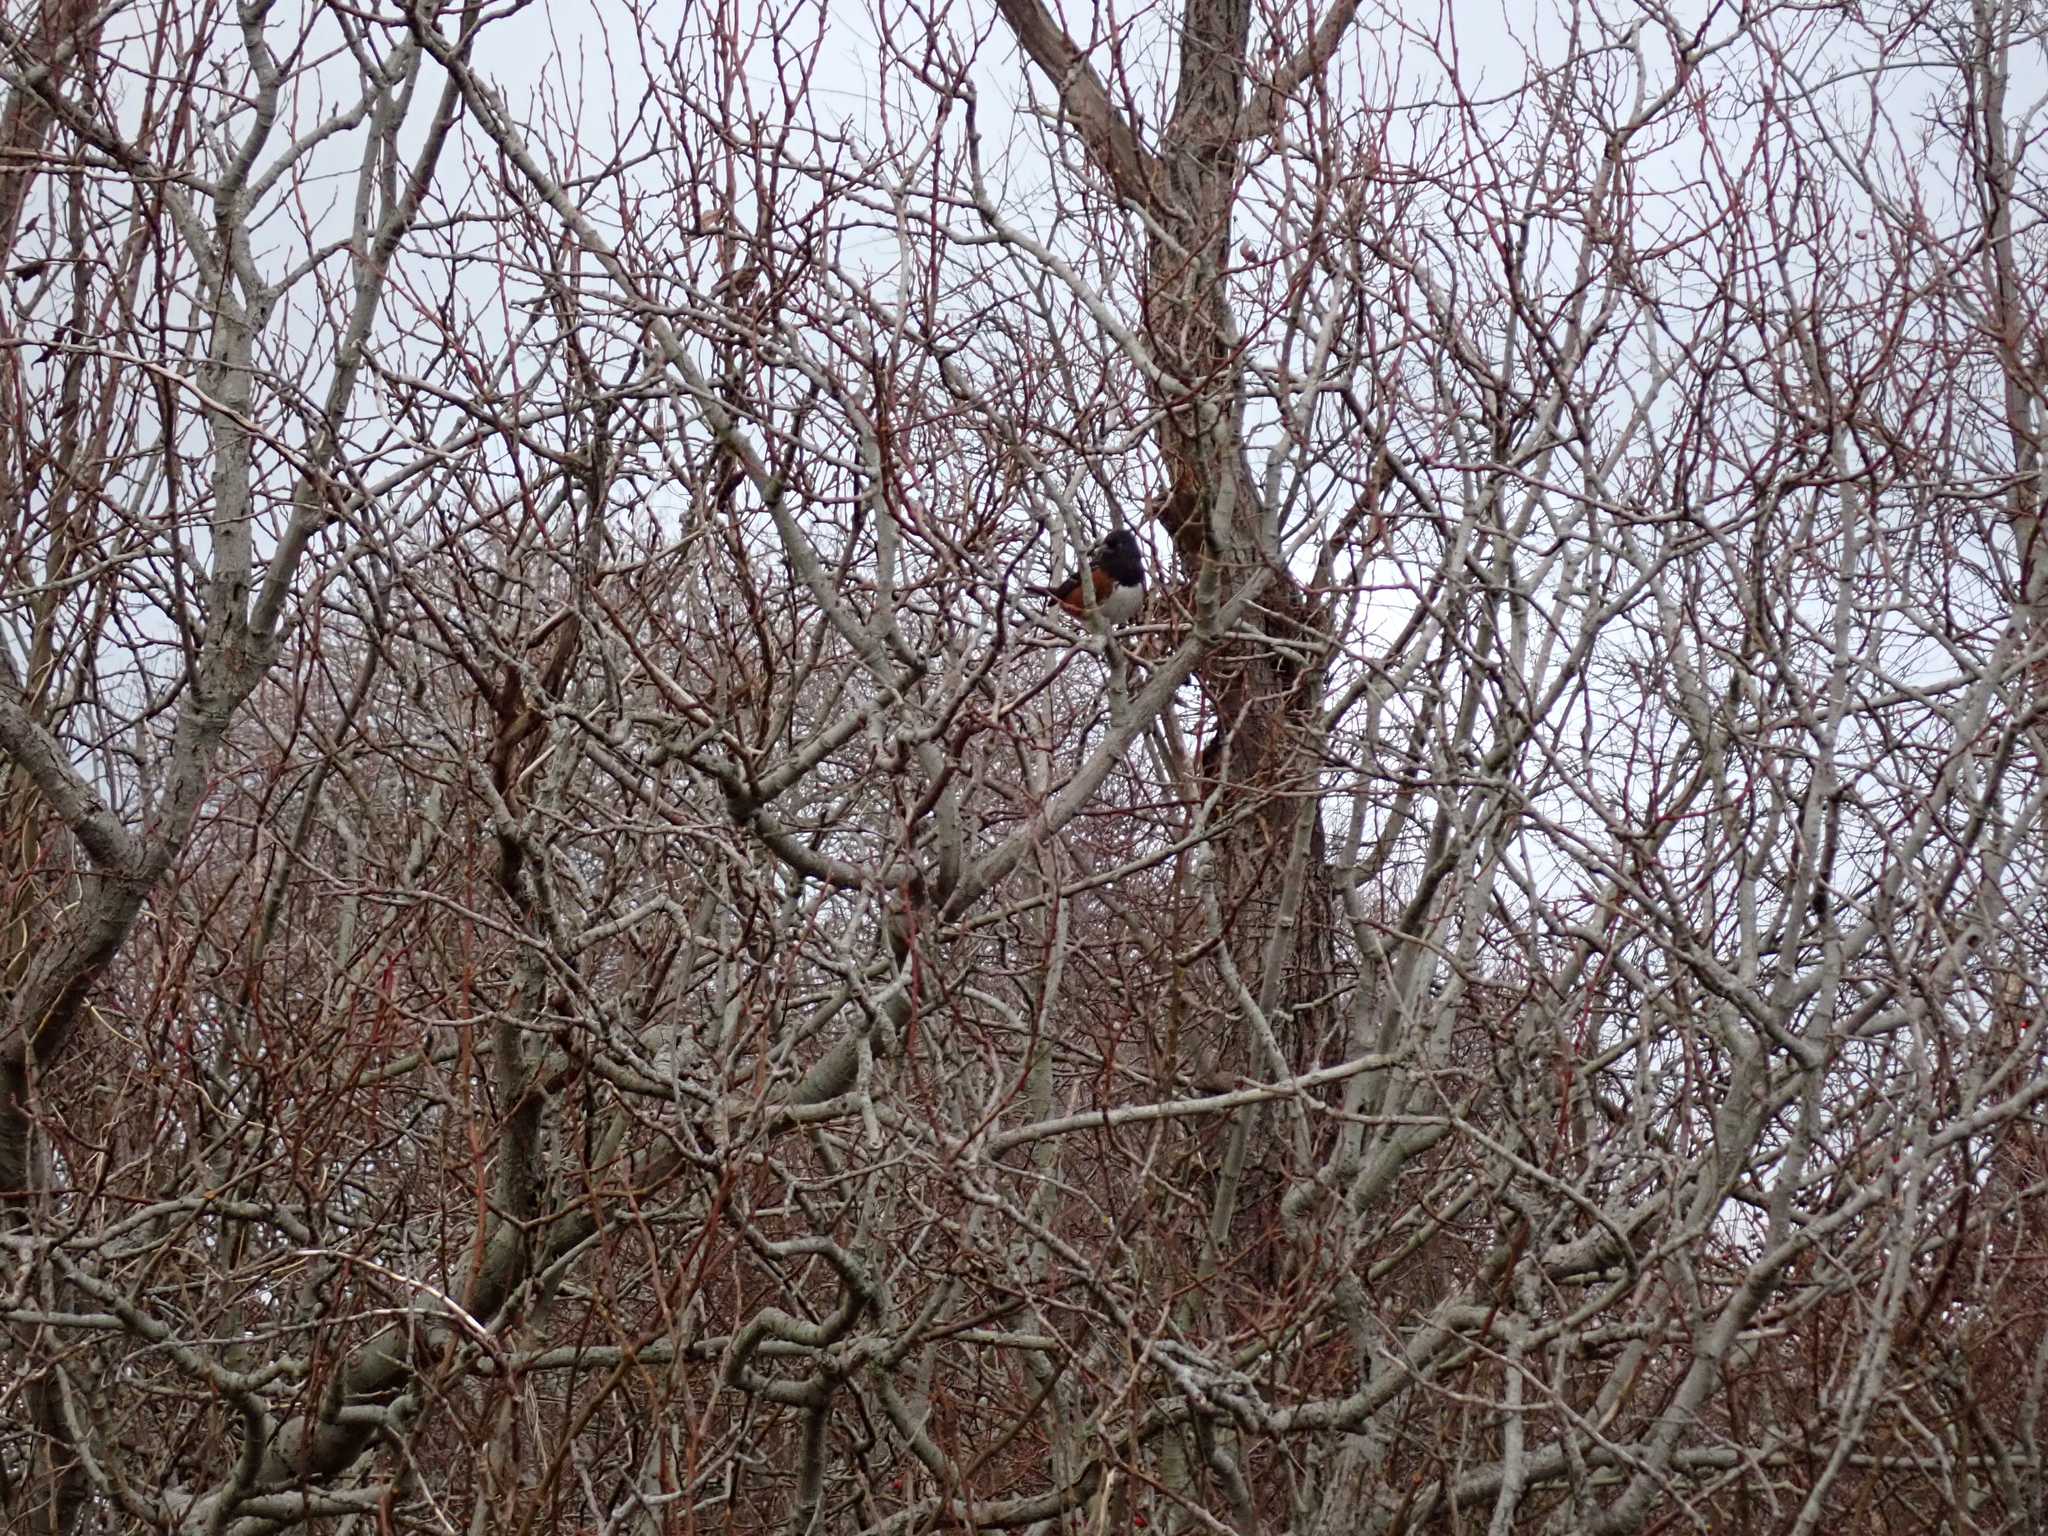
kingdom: Animalia
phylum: Chordata
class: Aves
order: Passeriformes
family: Passerellidae
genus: Pipilo
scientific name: Pipilo maculatus
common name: Spotted towhee
